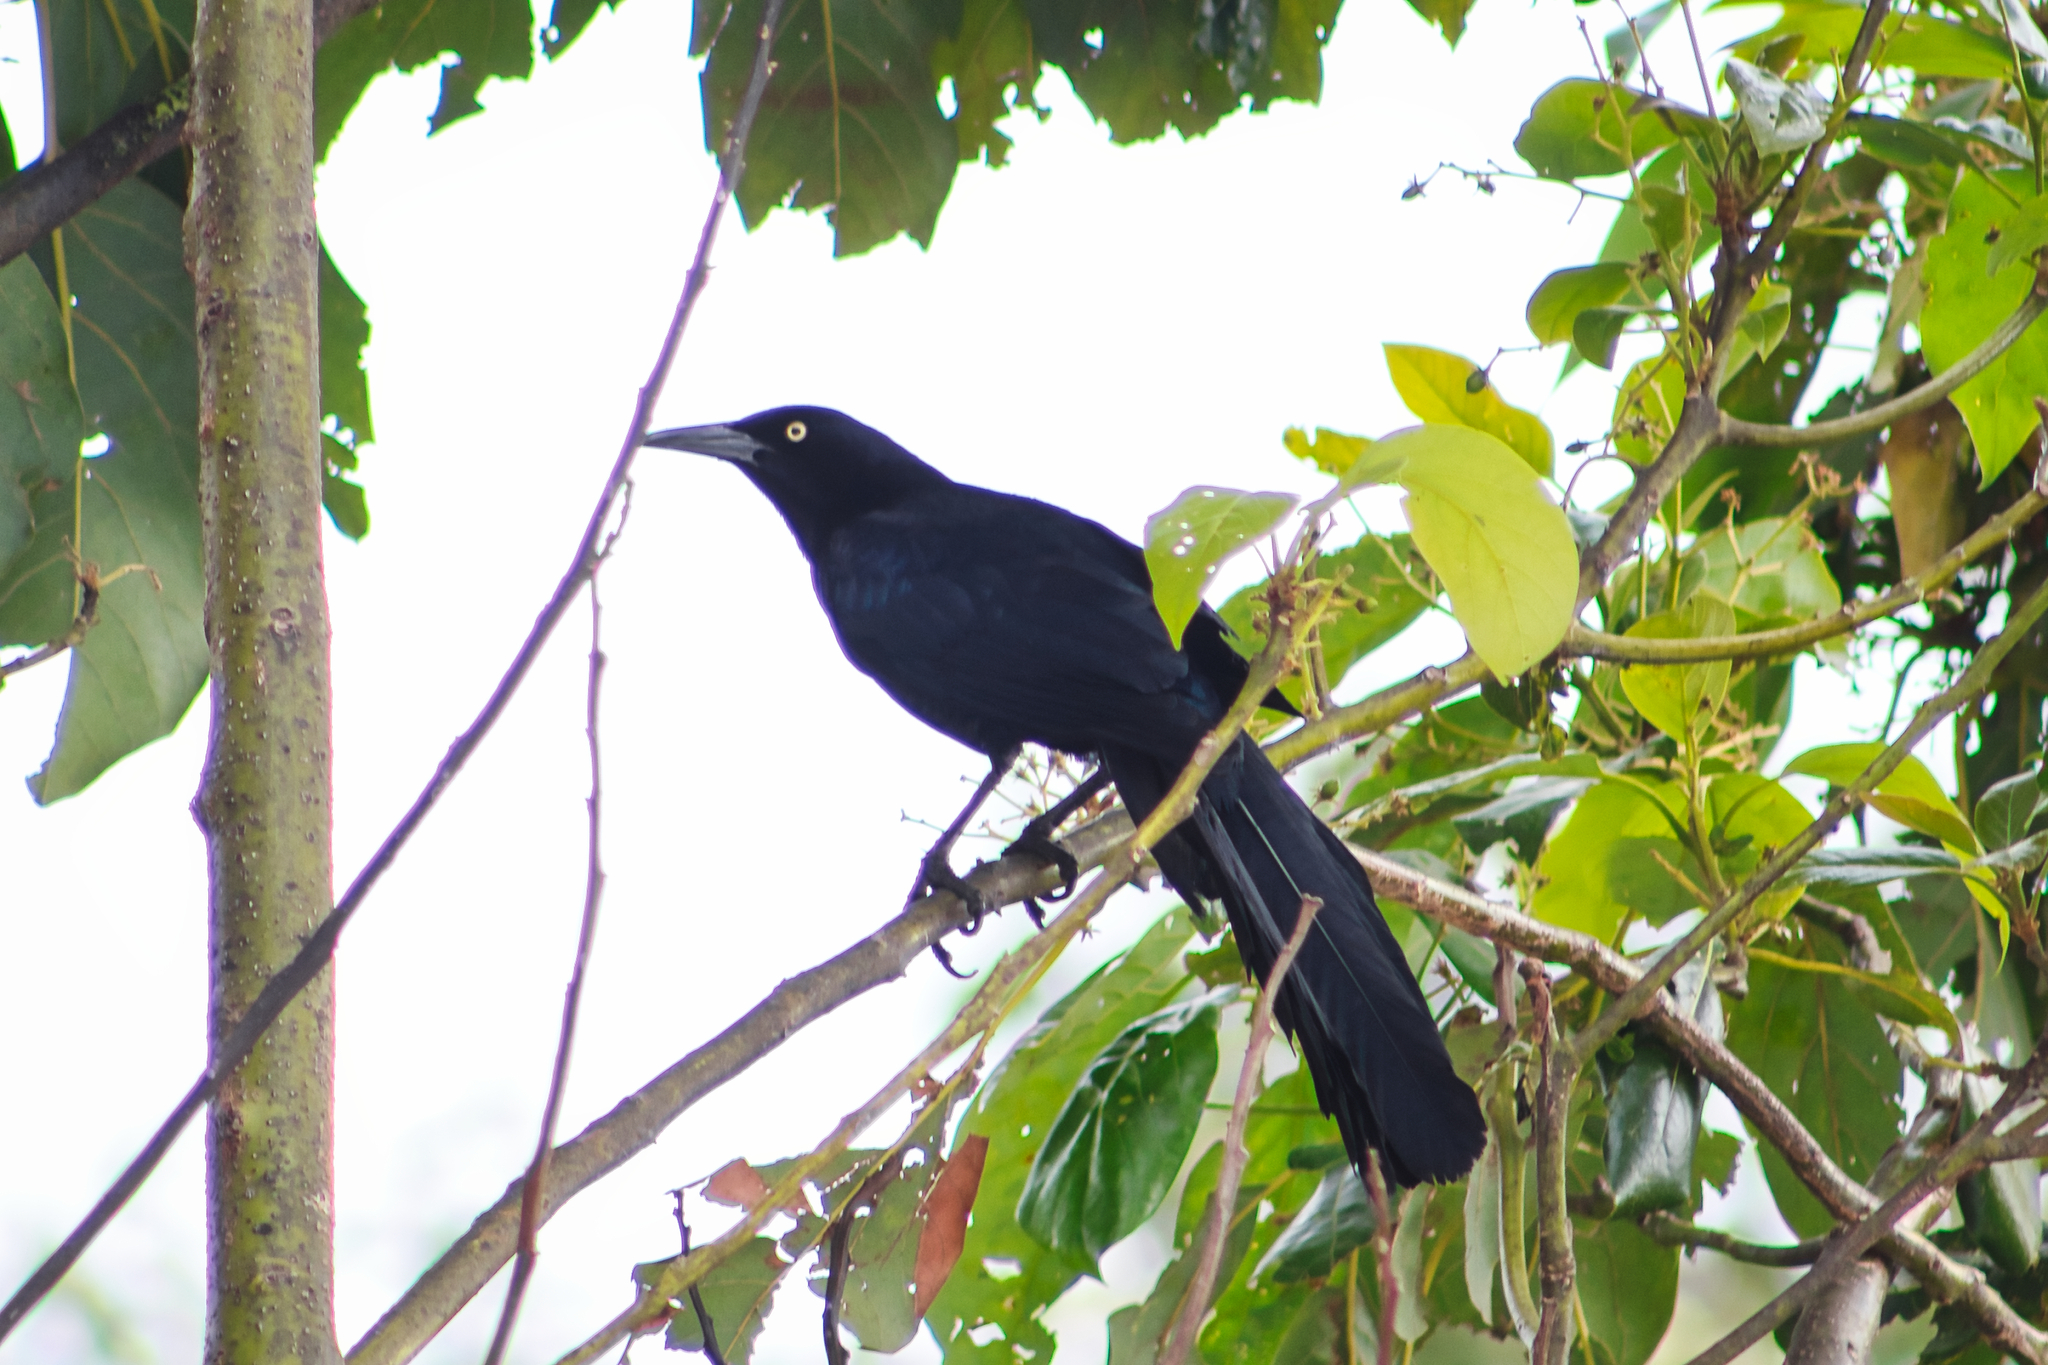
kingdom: Animalia
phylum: Chordata
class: Aves
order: Passeriformes
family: Icteridae
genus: Quiscalus
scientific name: Quiscalus mexicanus
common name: Great-tailed grackle
